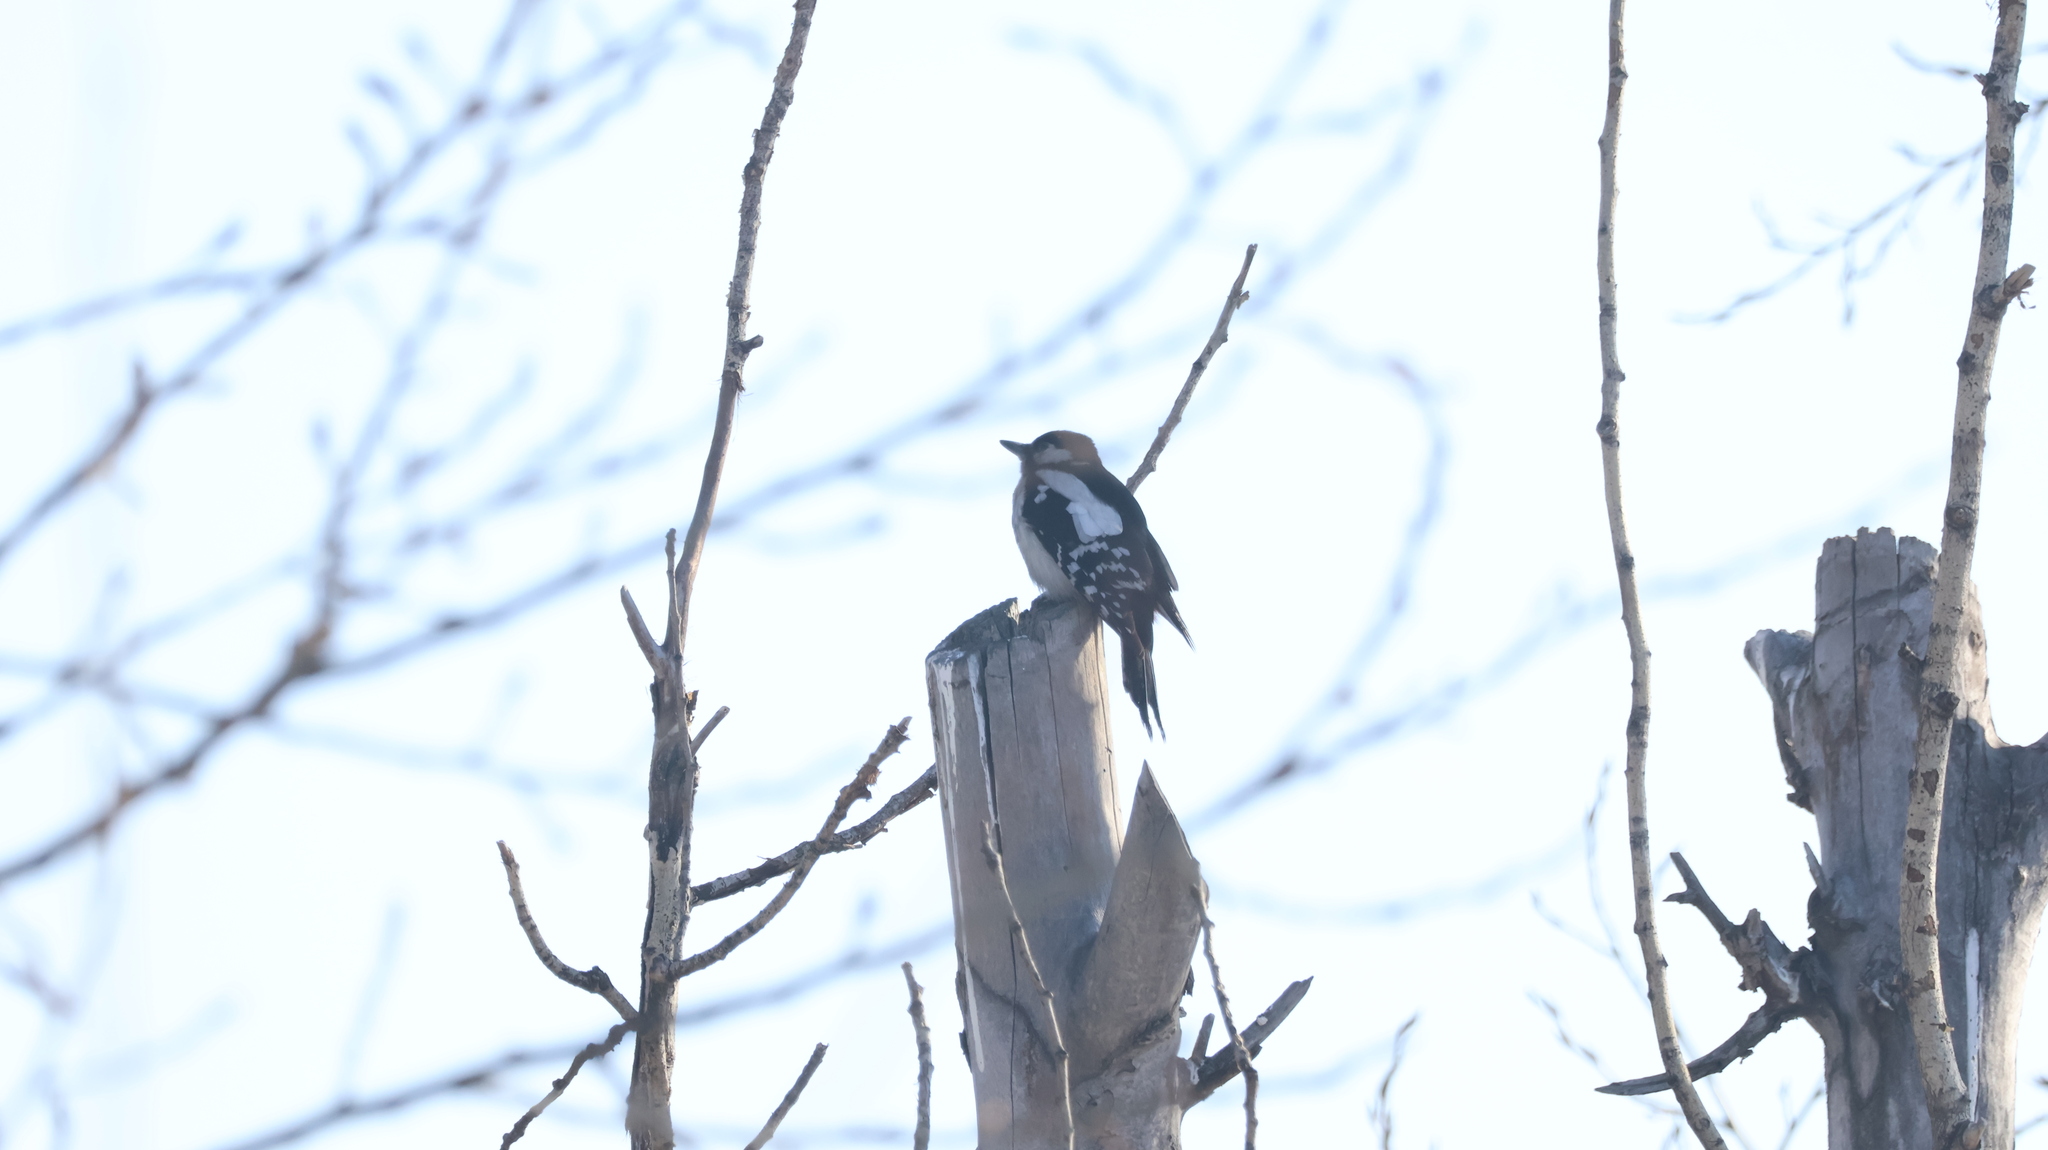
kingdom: Animalia
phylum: Chordata
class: Aves
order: Piciformes
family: Picidae
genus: Dendrocopos
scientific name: Dendrocopos major
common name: Great spotted woodpecker
